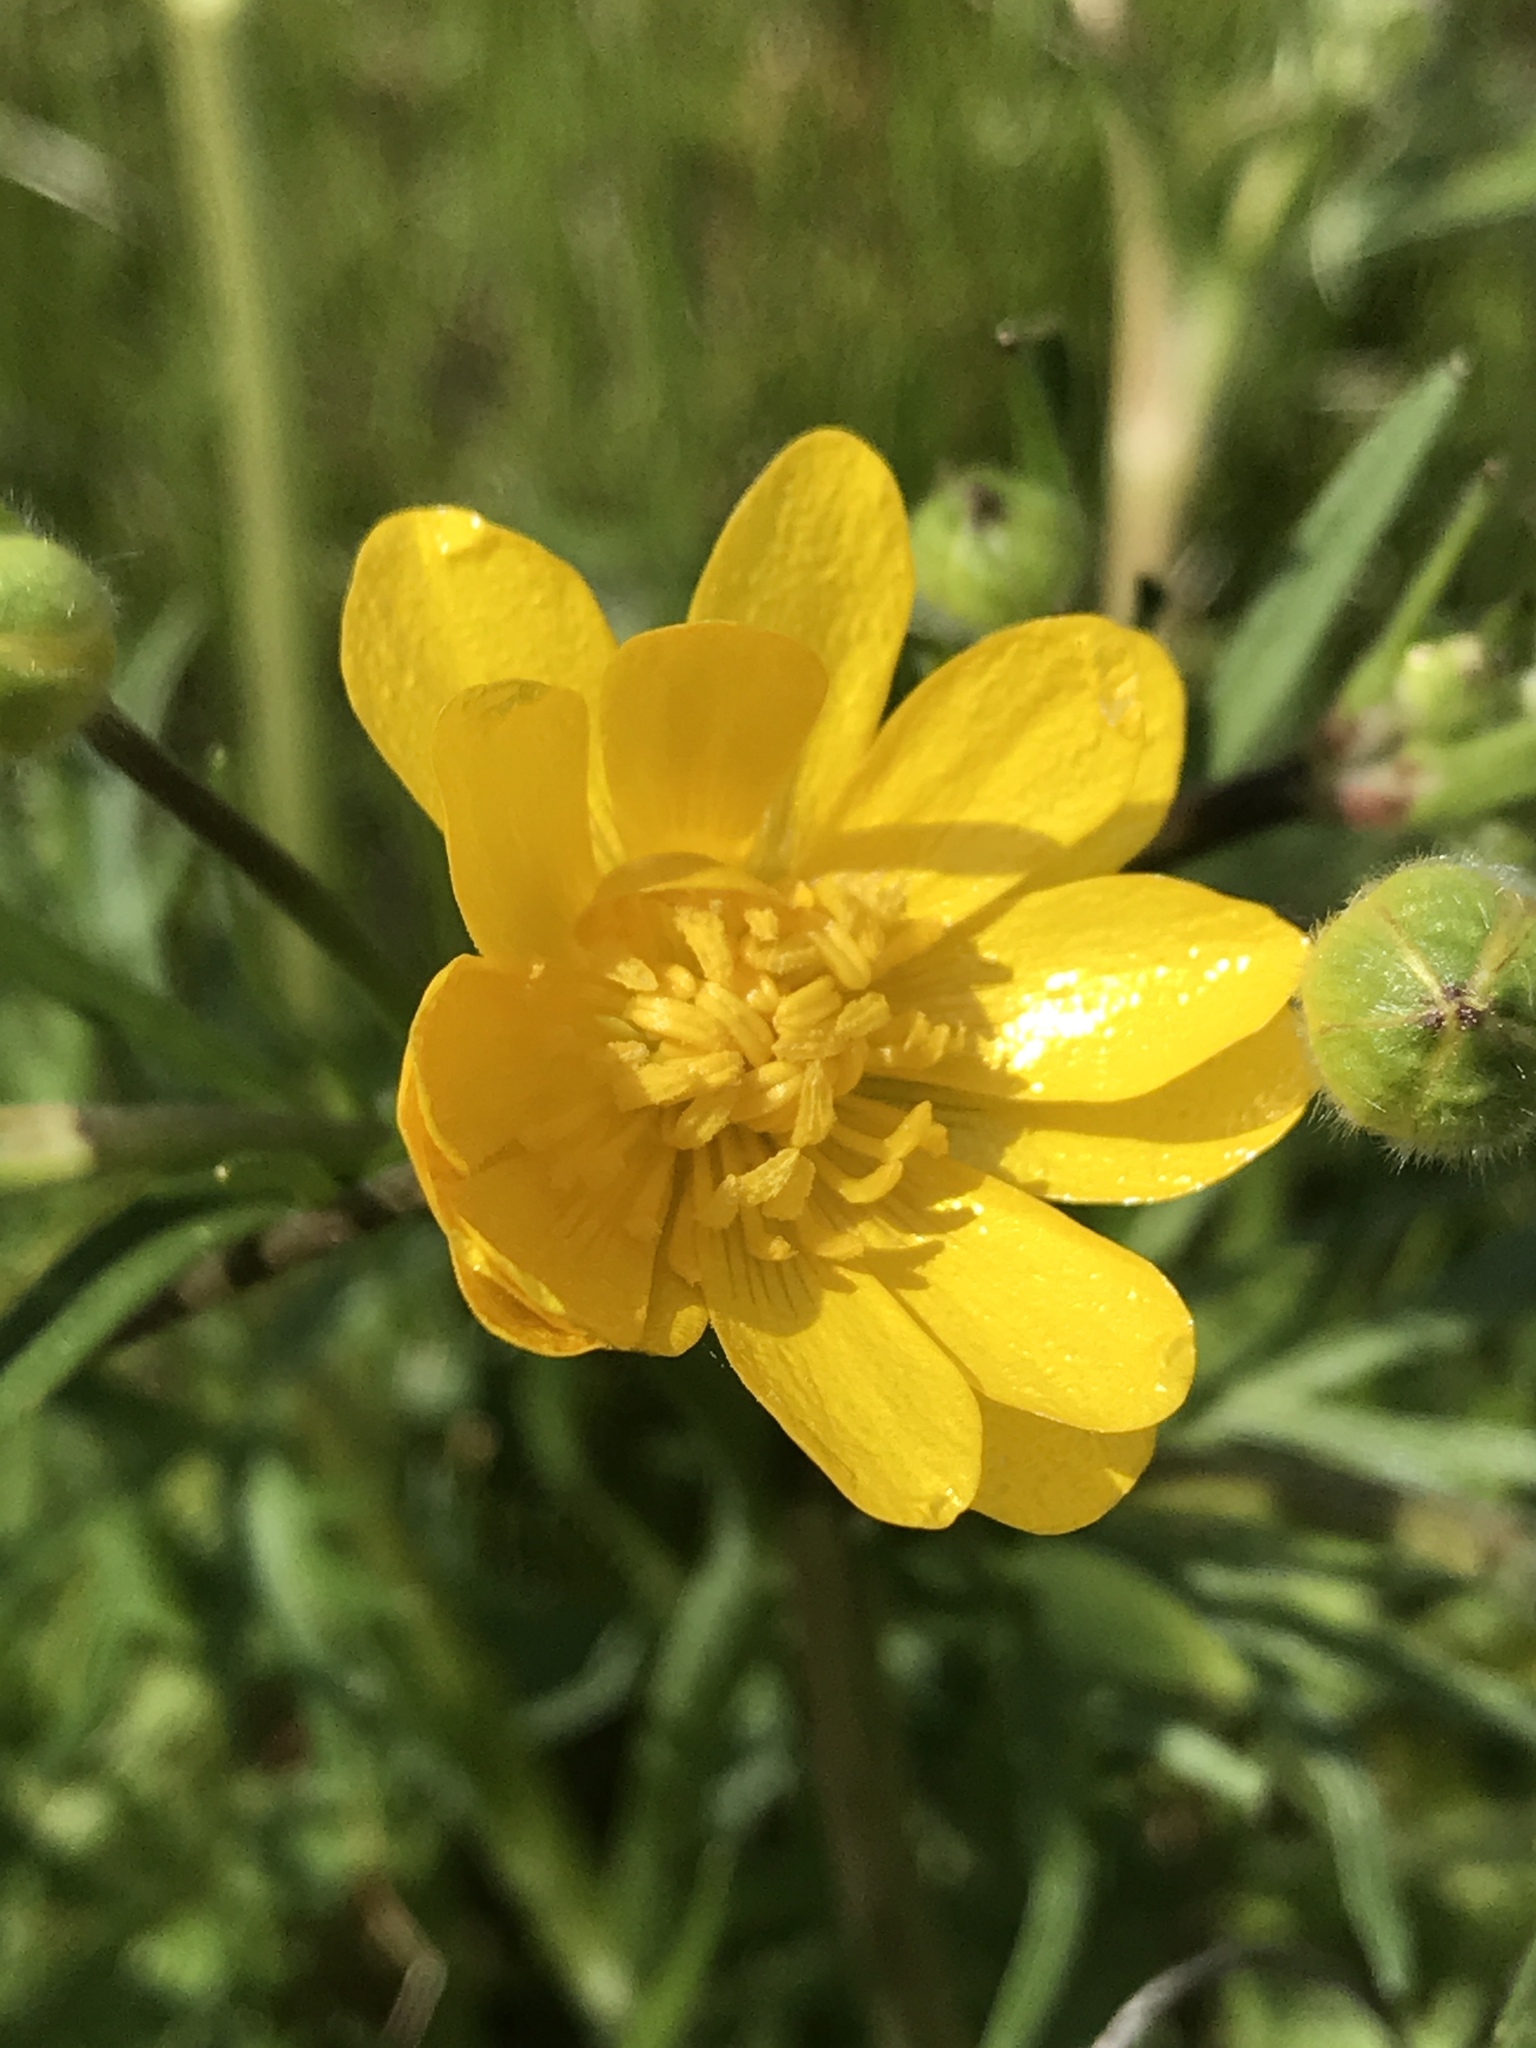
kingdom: Plantae
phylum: Tracheophyta
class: Magnoliopsida
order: Ranunculales
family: Ranunculaceae
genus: Ranunculus
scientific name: Ranunculus californicus
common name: California buttercup
